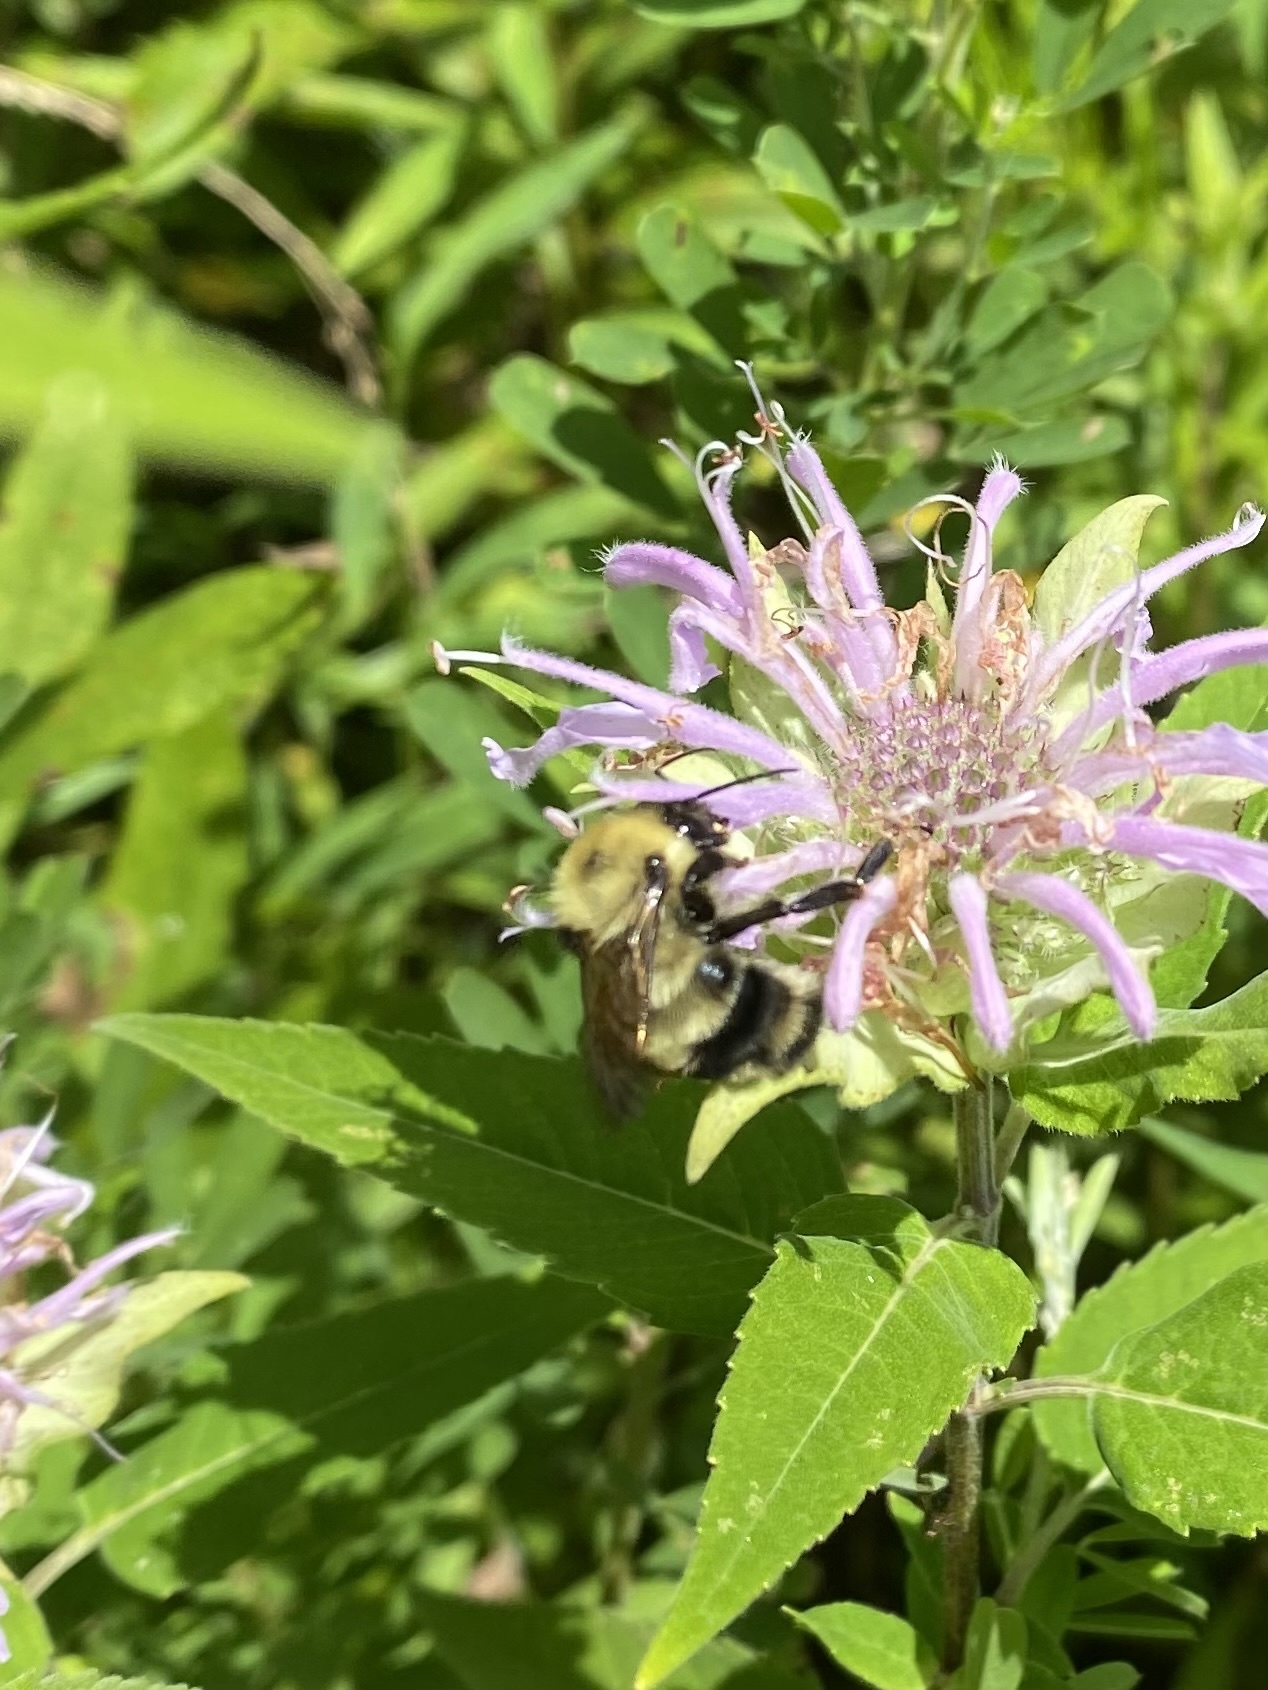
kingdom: Animalia
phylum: Arthropoda
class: Insecta
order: Hymenoptera
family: Apidae
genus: Bombus
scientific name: Bombus bimaculatus
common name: Two-spotted bumble bee
